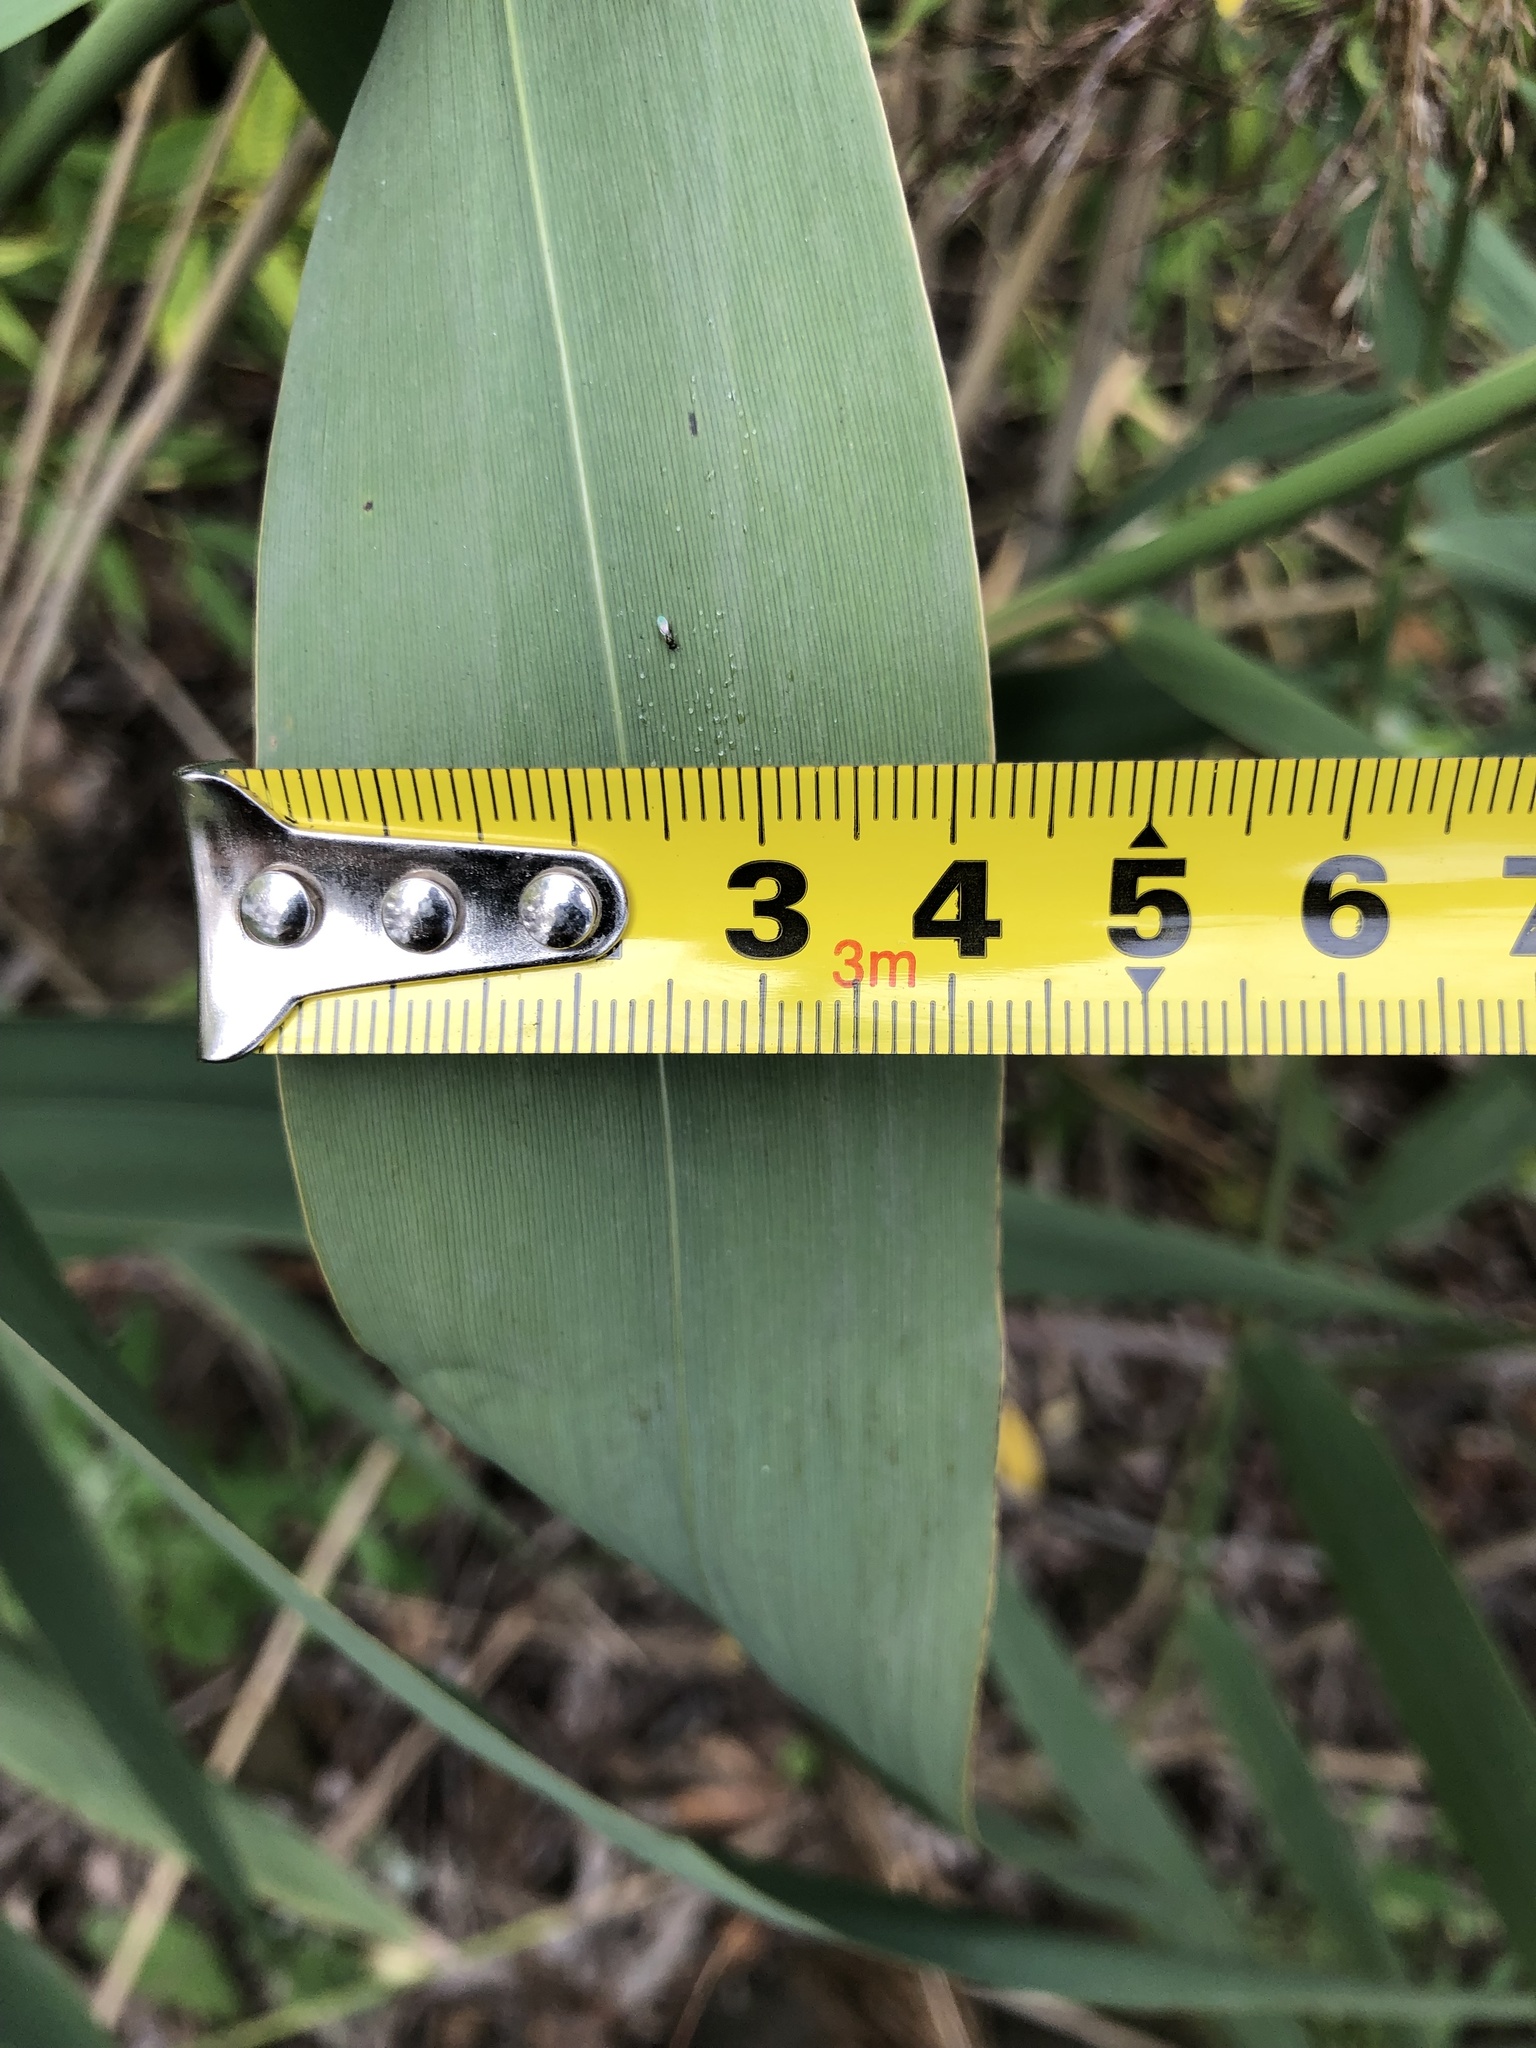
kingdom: Plantae
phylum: Tracheophyta
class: Liliopsida
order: Poales
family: Poaceae
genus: Phragmites
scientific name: Phragmites australis
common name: Common reed
